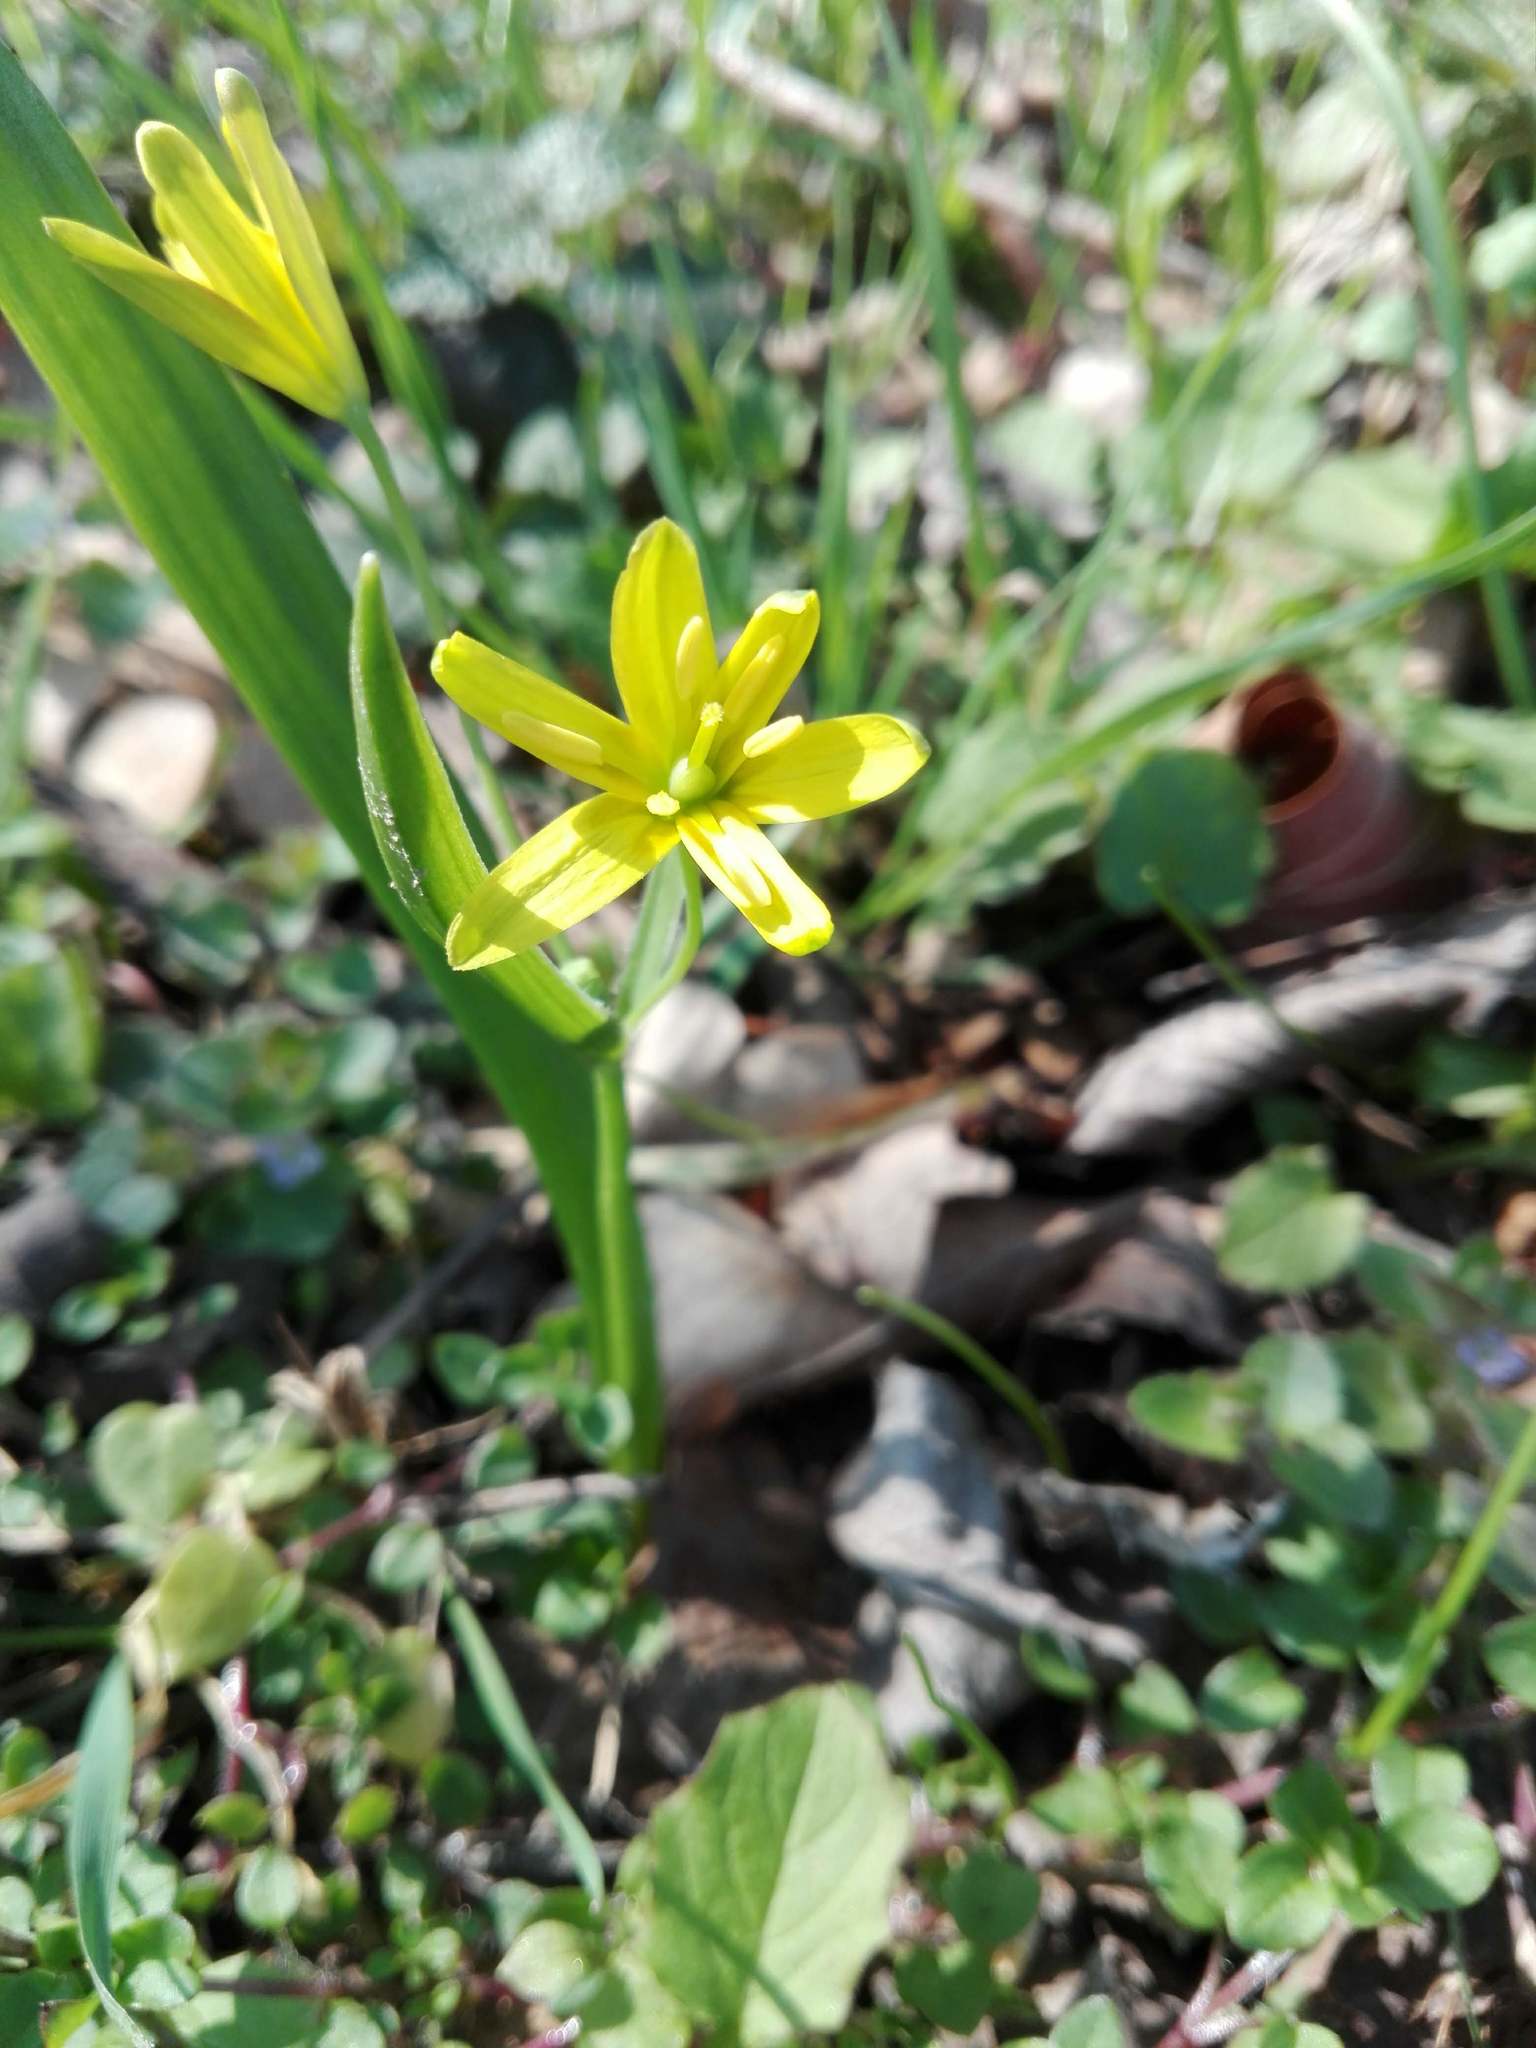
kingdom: Plantae
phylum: Tracheophyta
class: Liliopsida
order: Liliales
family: Liliaceae
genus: Gagea
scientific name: Gagea lutea
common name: Yellow star-of-bethlehem
